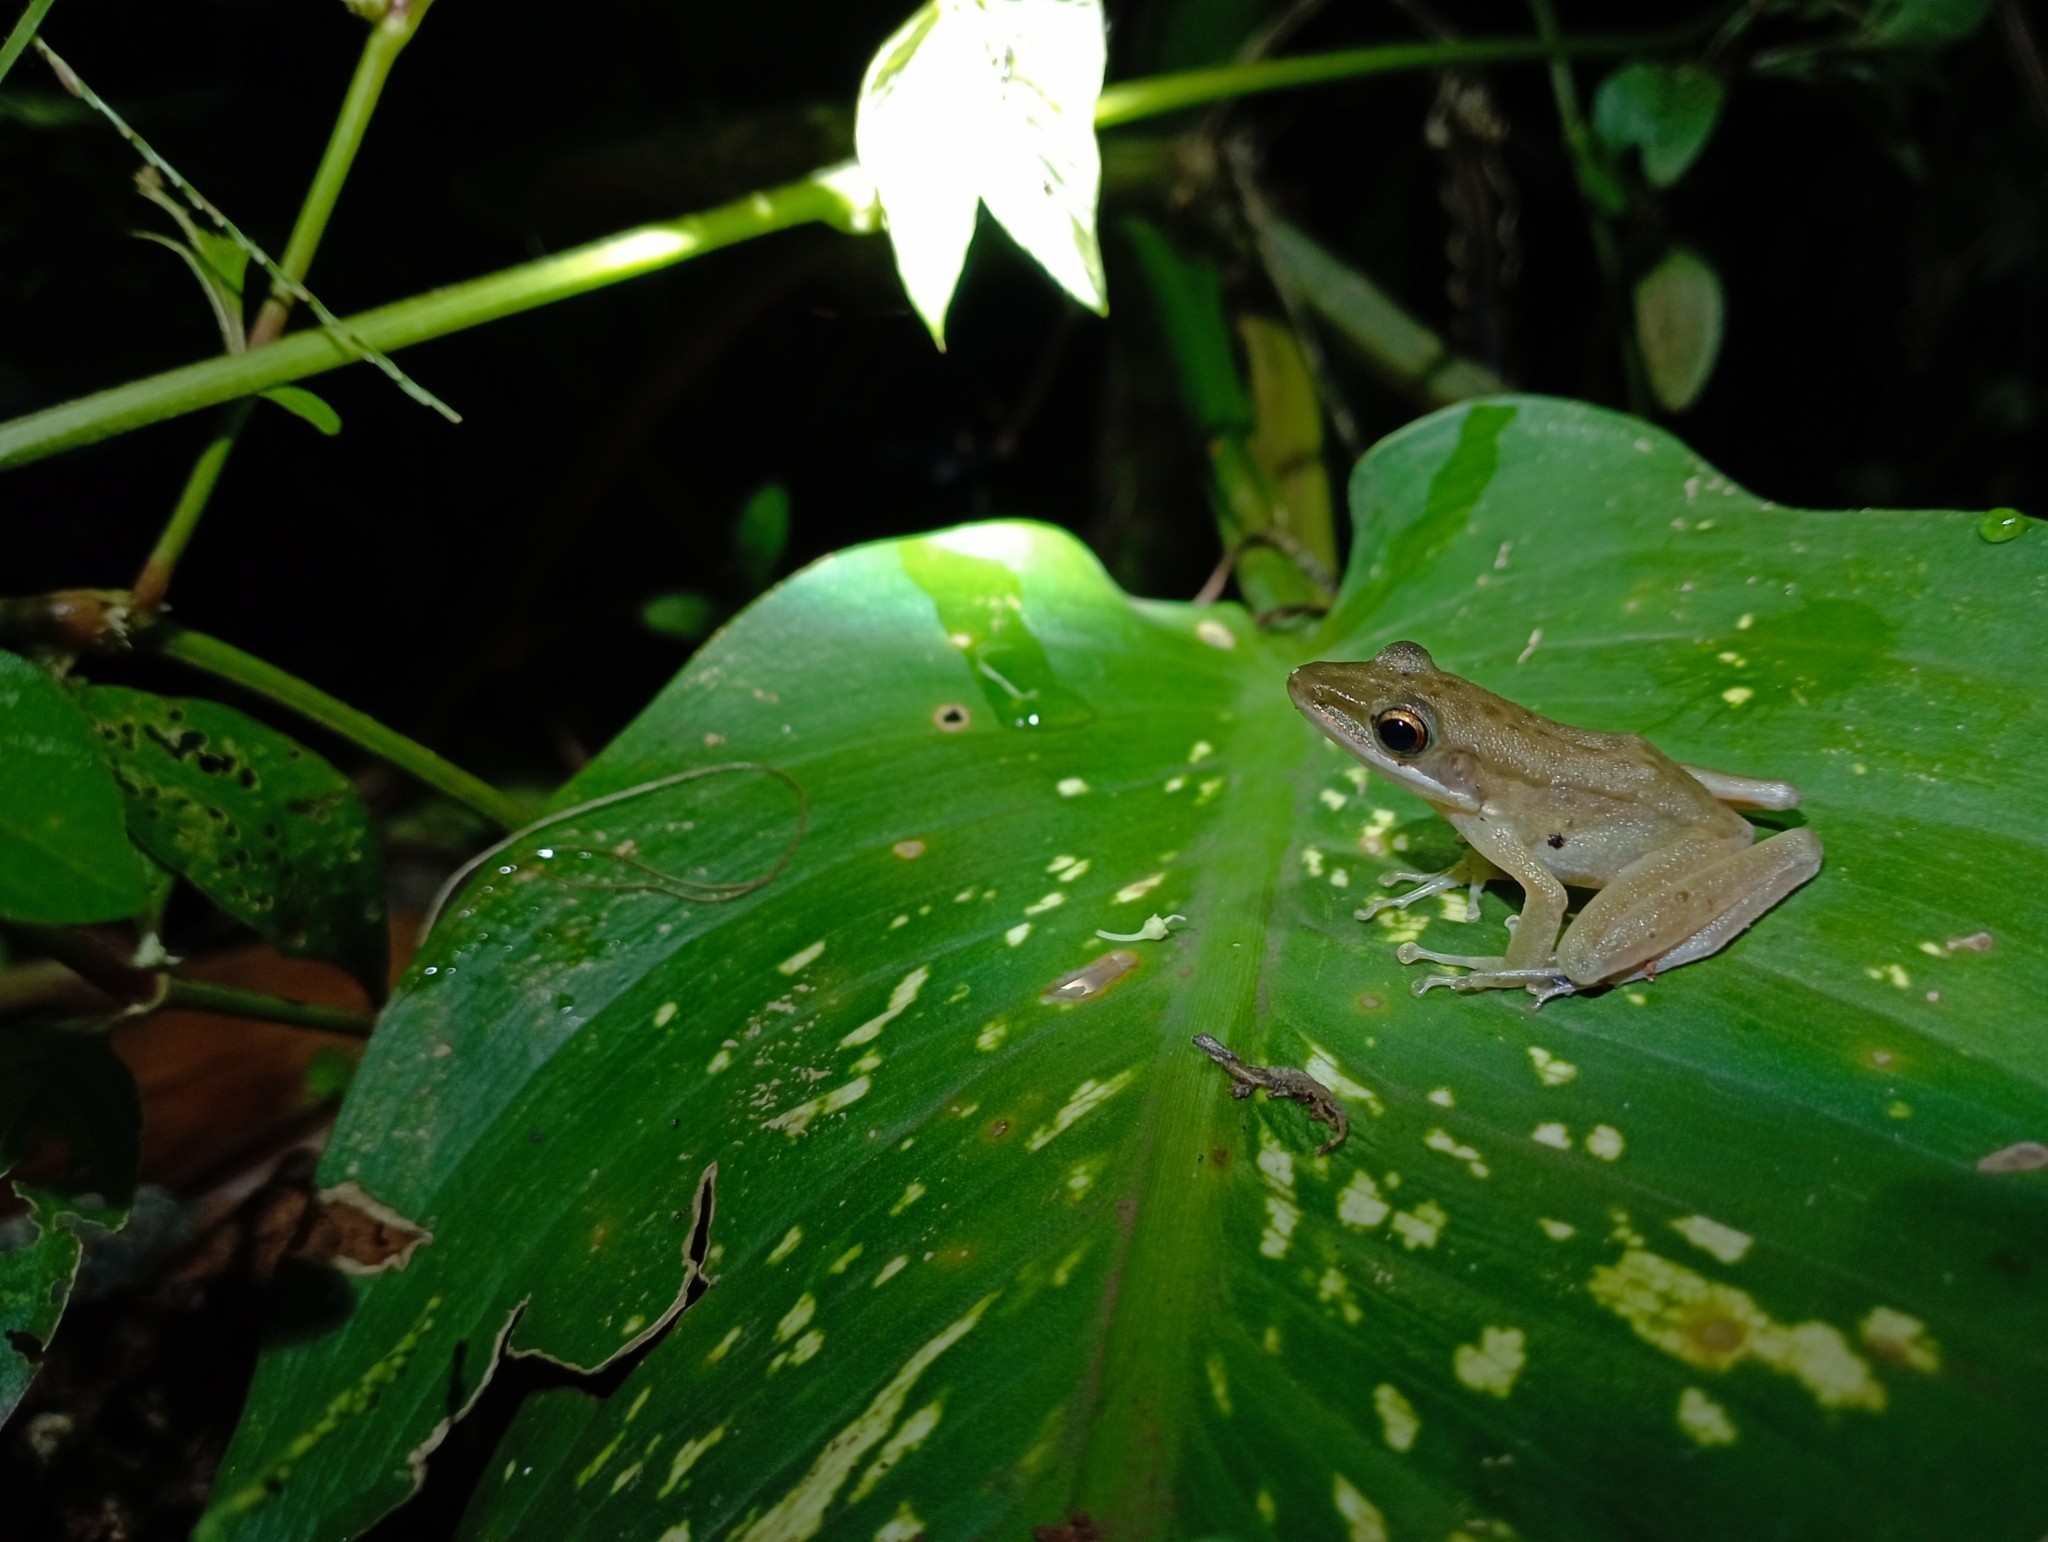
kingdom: Animalia
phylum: Chordata
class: Amphibia
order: Anura
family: Ranidae
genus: Chalcorana
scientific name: Chalcorana chalconota
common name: Schlegel's frog
